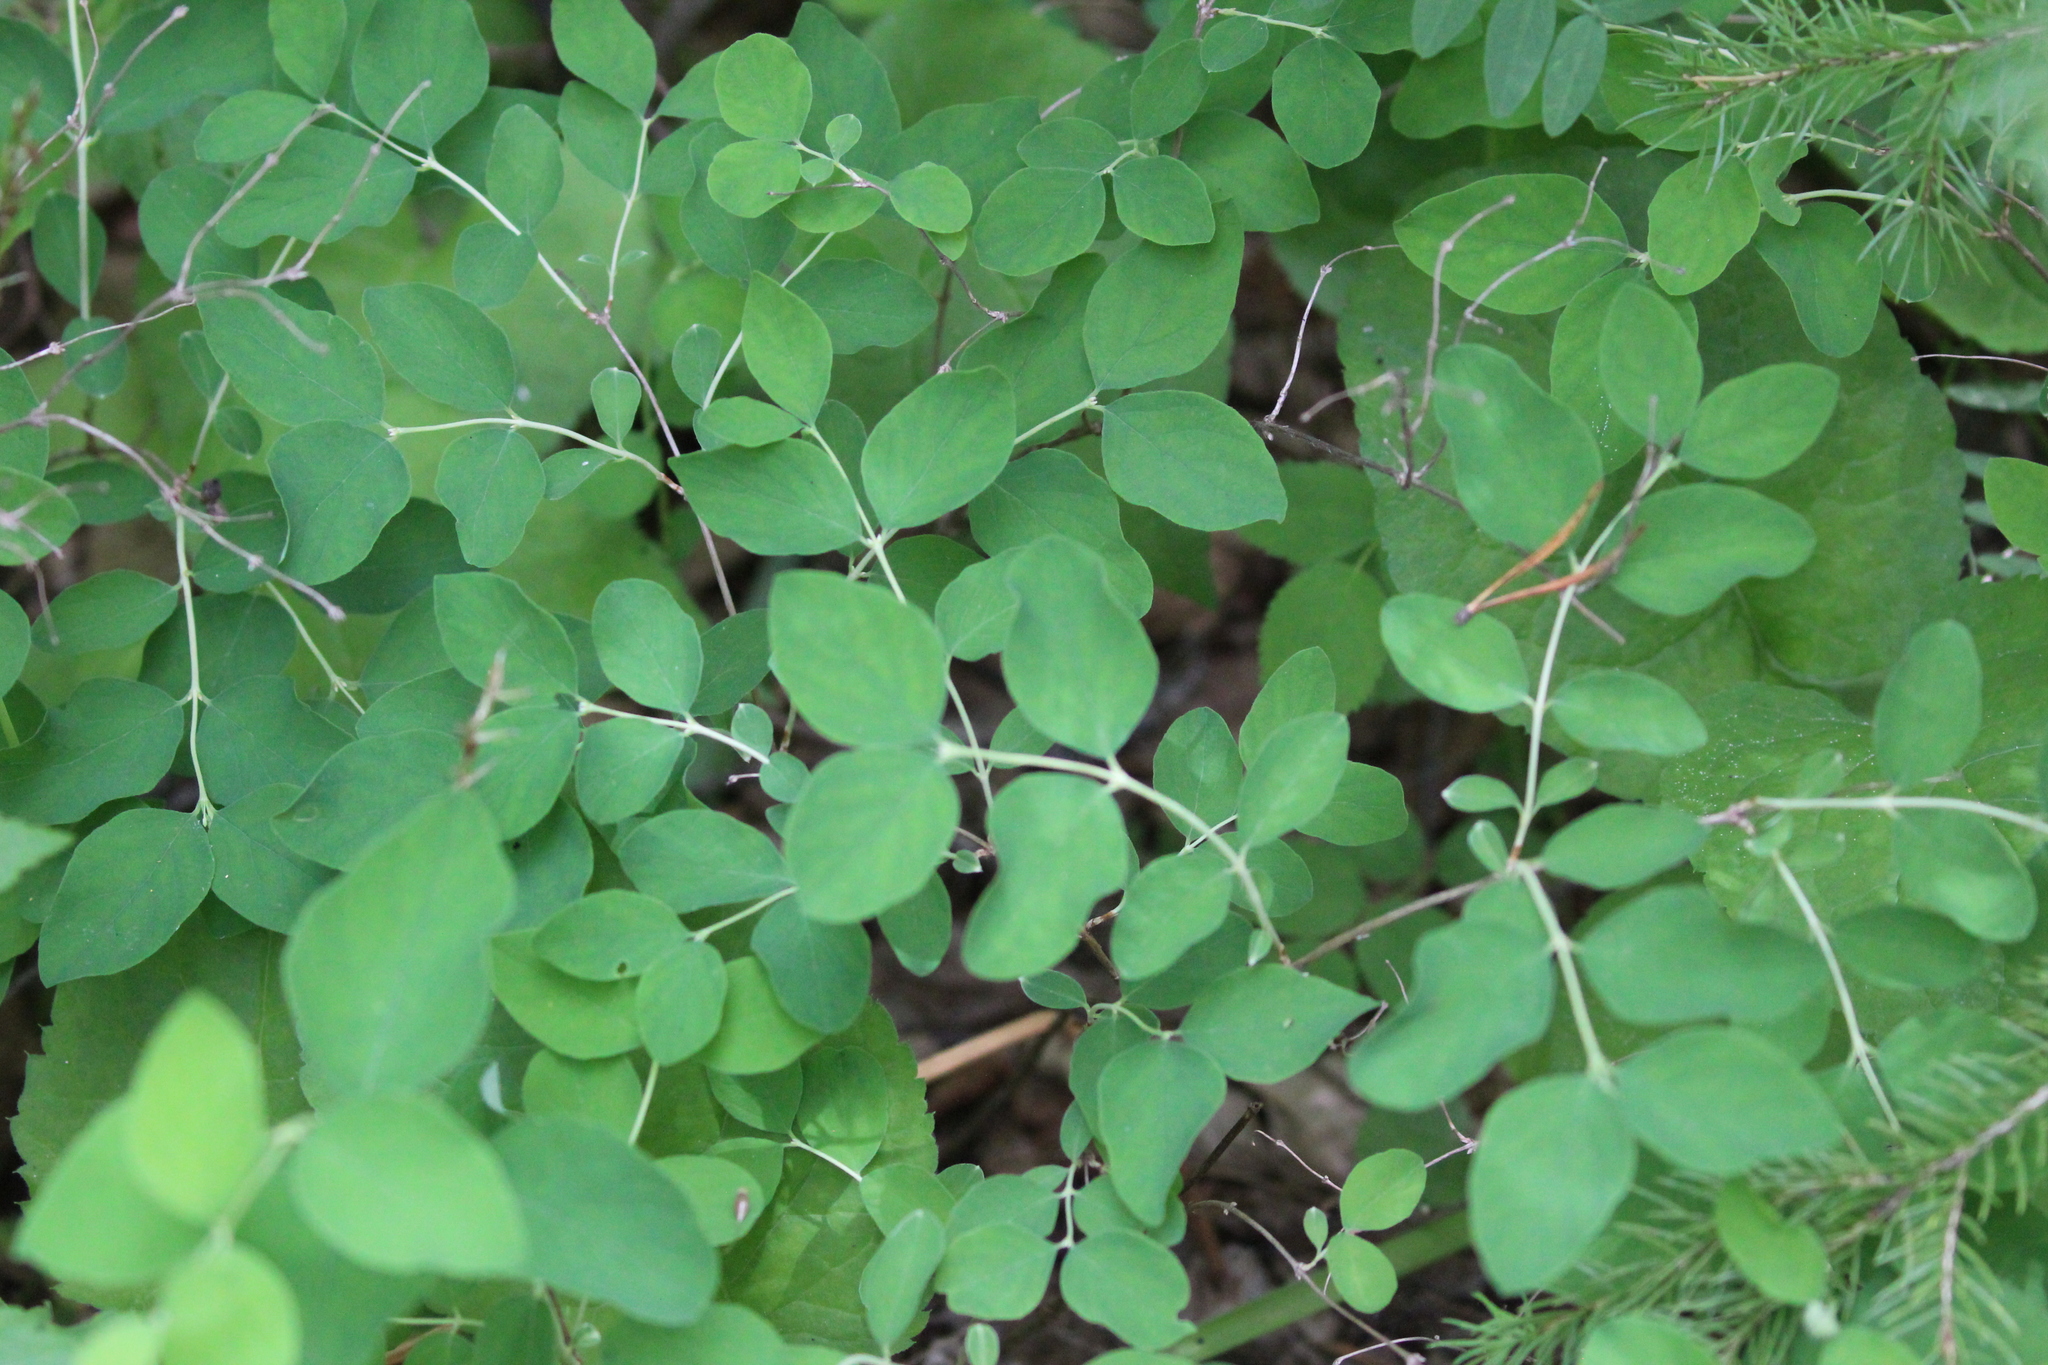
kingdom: Plantae
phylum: Tracheophyta
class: Magnoliopsida
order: Dipsacales
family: Caprifoliaceae
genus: Symphoricarpos
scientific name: Symphoricarpos albus
